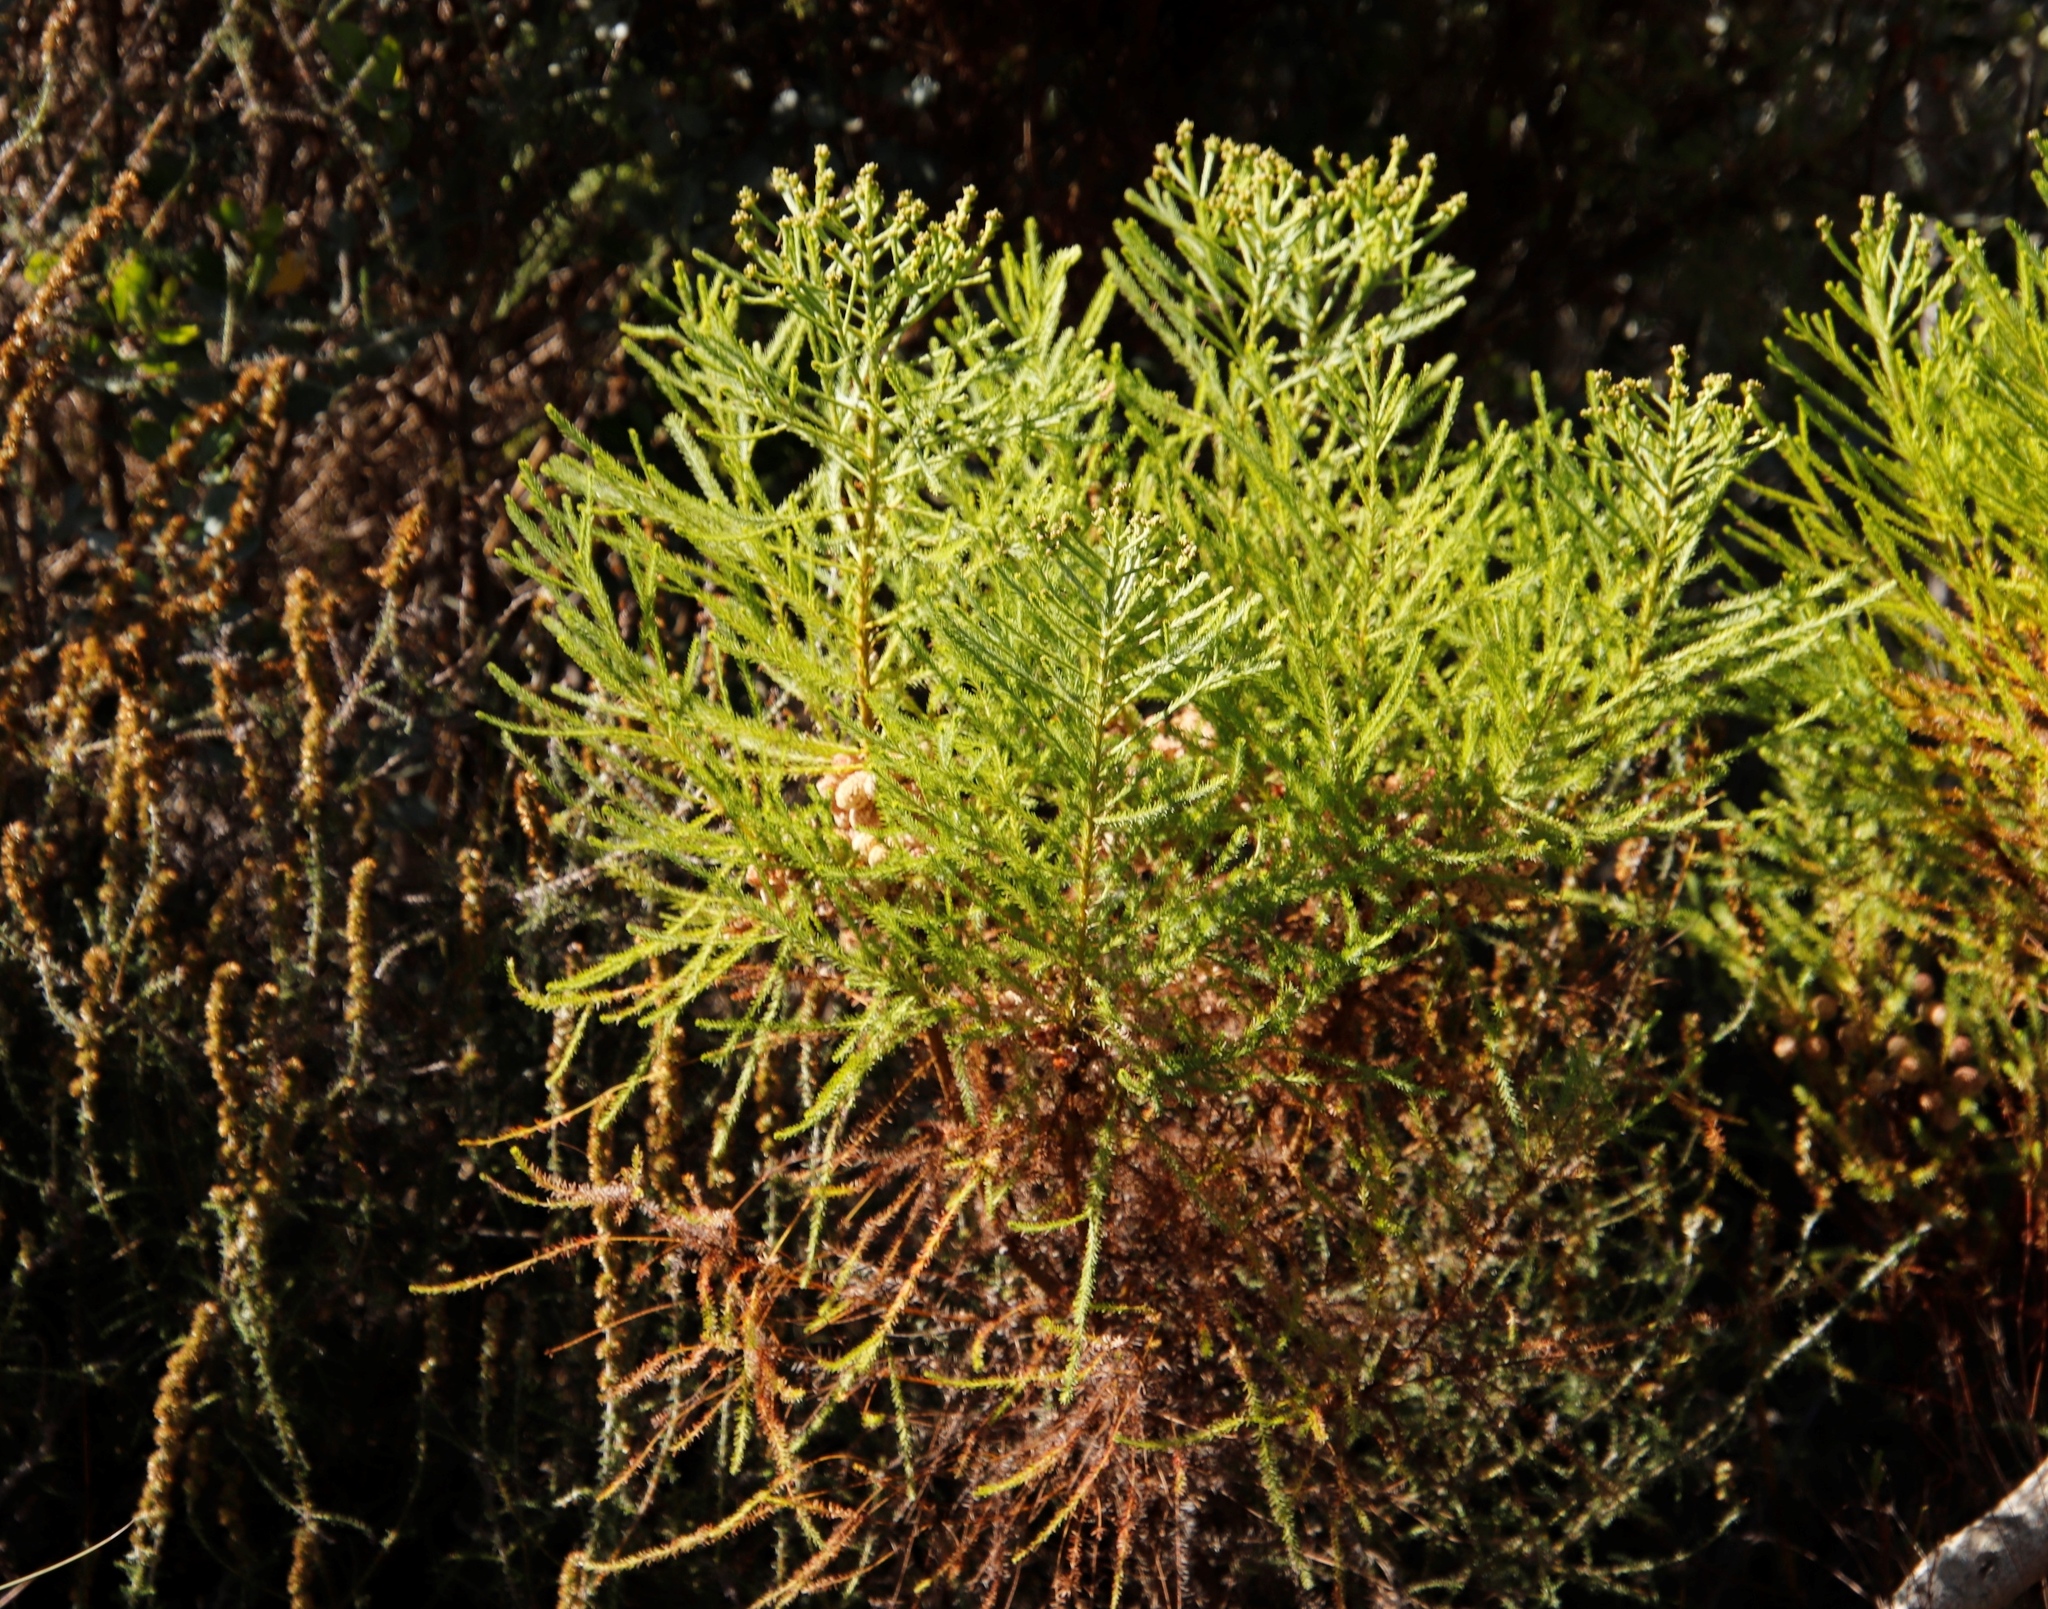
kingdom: Plantae
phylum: Tracheophyta
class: Magnoliopsida
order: Bruniales
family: Bruniaceae
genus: Berzelia
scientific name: Berzelia lanuginosa
